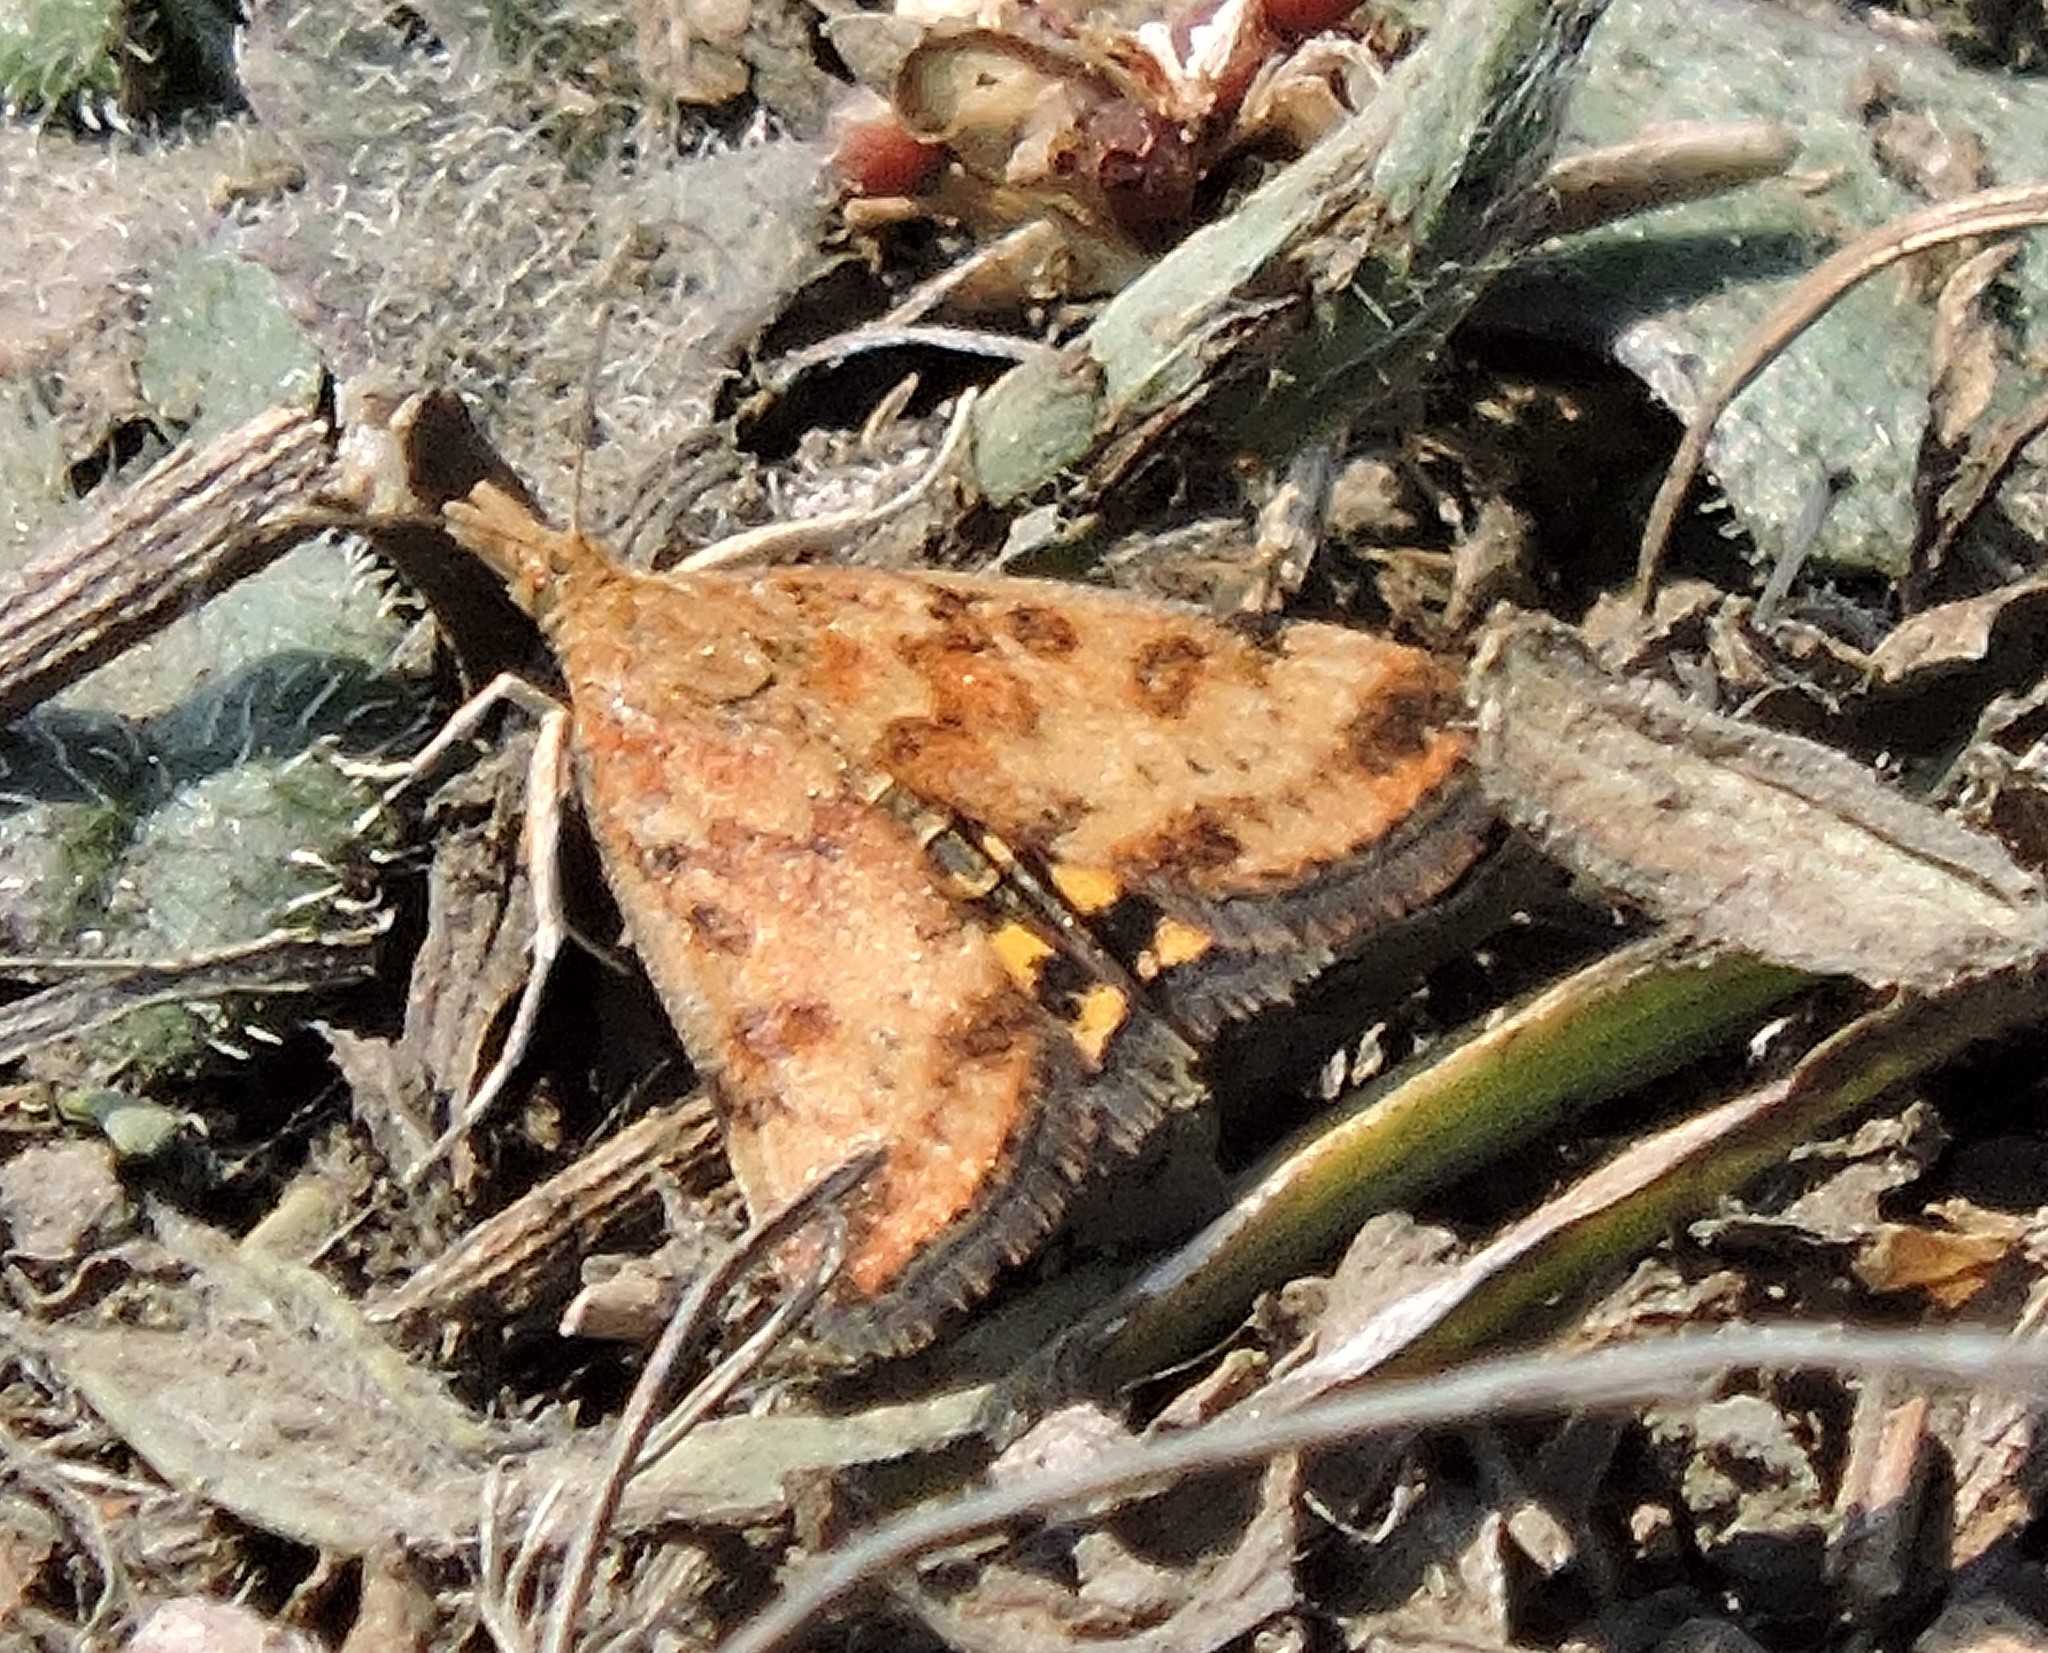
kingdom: Animalia
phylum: Arthropoda
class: Insecta
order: Lepidoptera
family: Crambidae
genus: Pyrausta
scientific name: Pyrausta subsequalis
